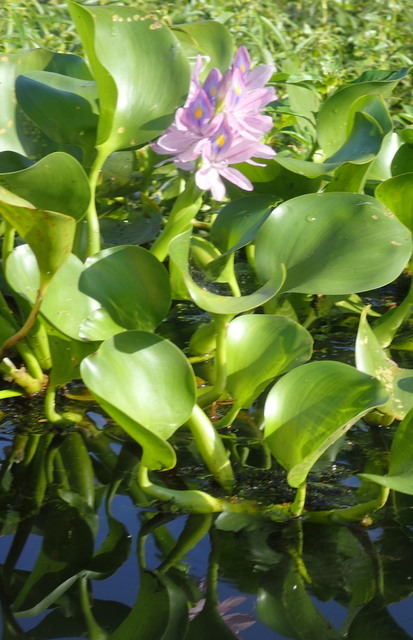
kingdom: Plantae
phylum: Tracheophyta
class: Liliopsida
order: Commelinales
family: Pontederiaceae
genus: Pontederia
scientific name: Pontederia crassipes
